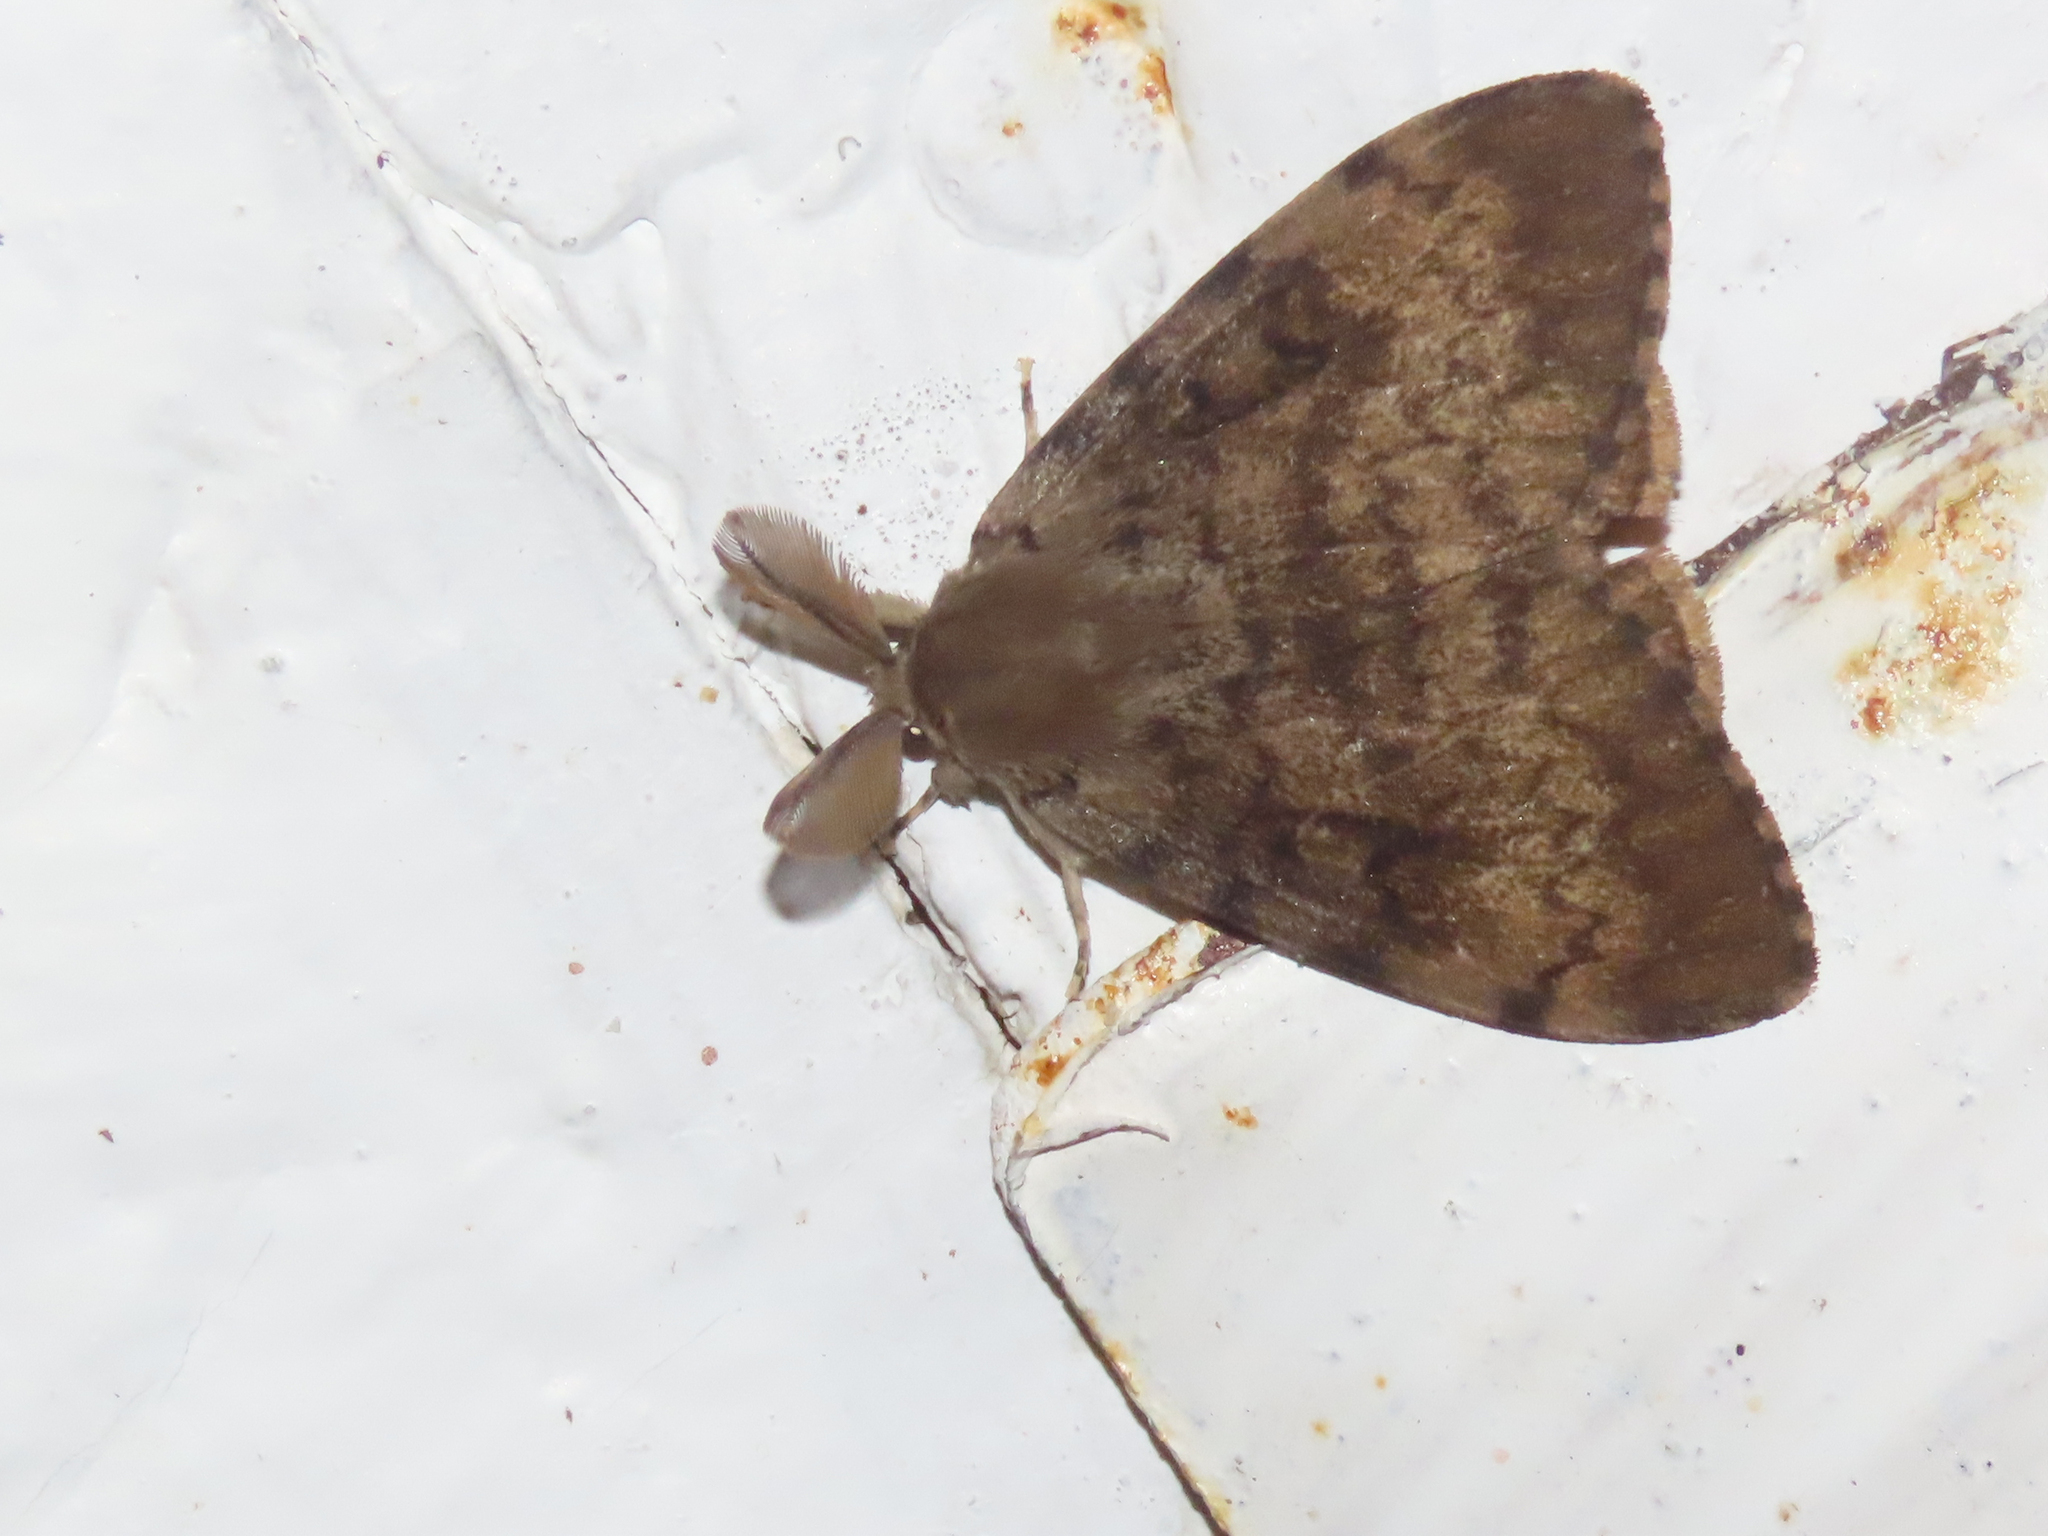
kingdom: Animalia
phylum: Arthropoda
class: Insecta
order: Lepidoptera
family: Erebidae
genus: Lymantria
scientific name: Lymantria dispar
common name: Gypsy moth
